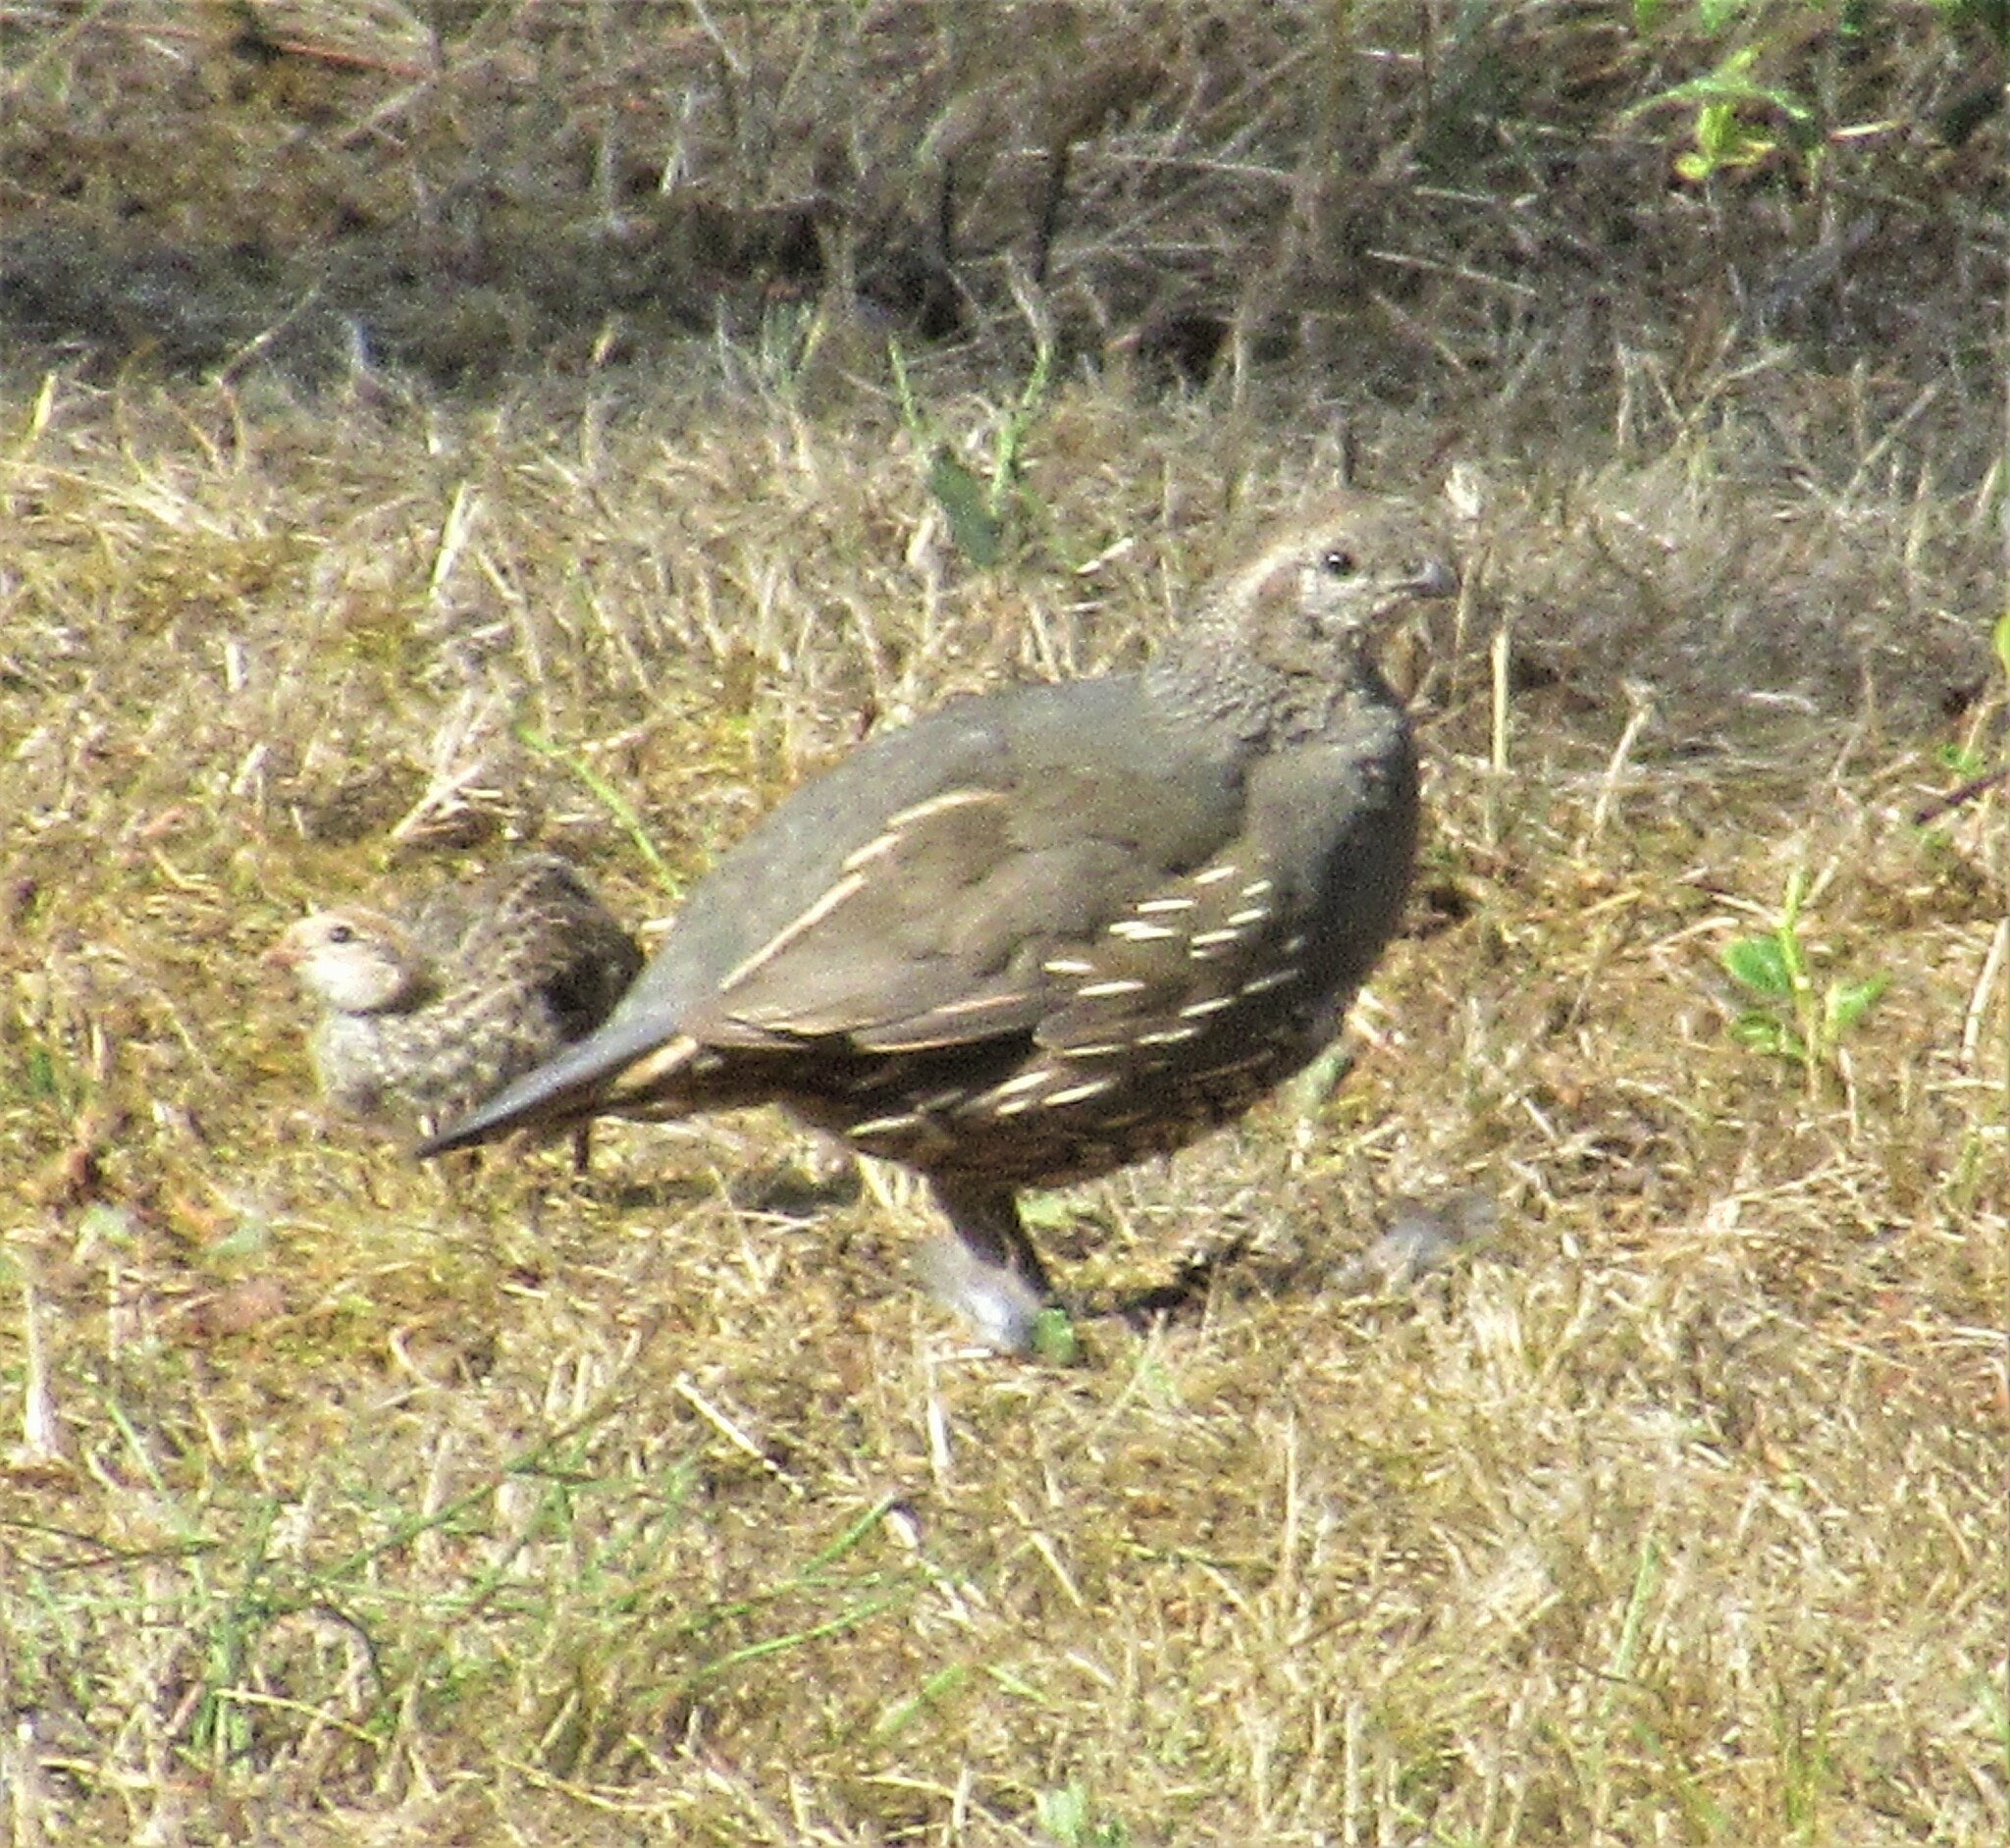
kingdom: Animalia
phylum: Chordata
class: Aves
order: Galliformes
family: Odontophoridae
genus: Callipepla
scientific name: Callipepla californica
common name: California quail
